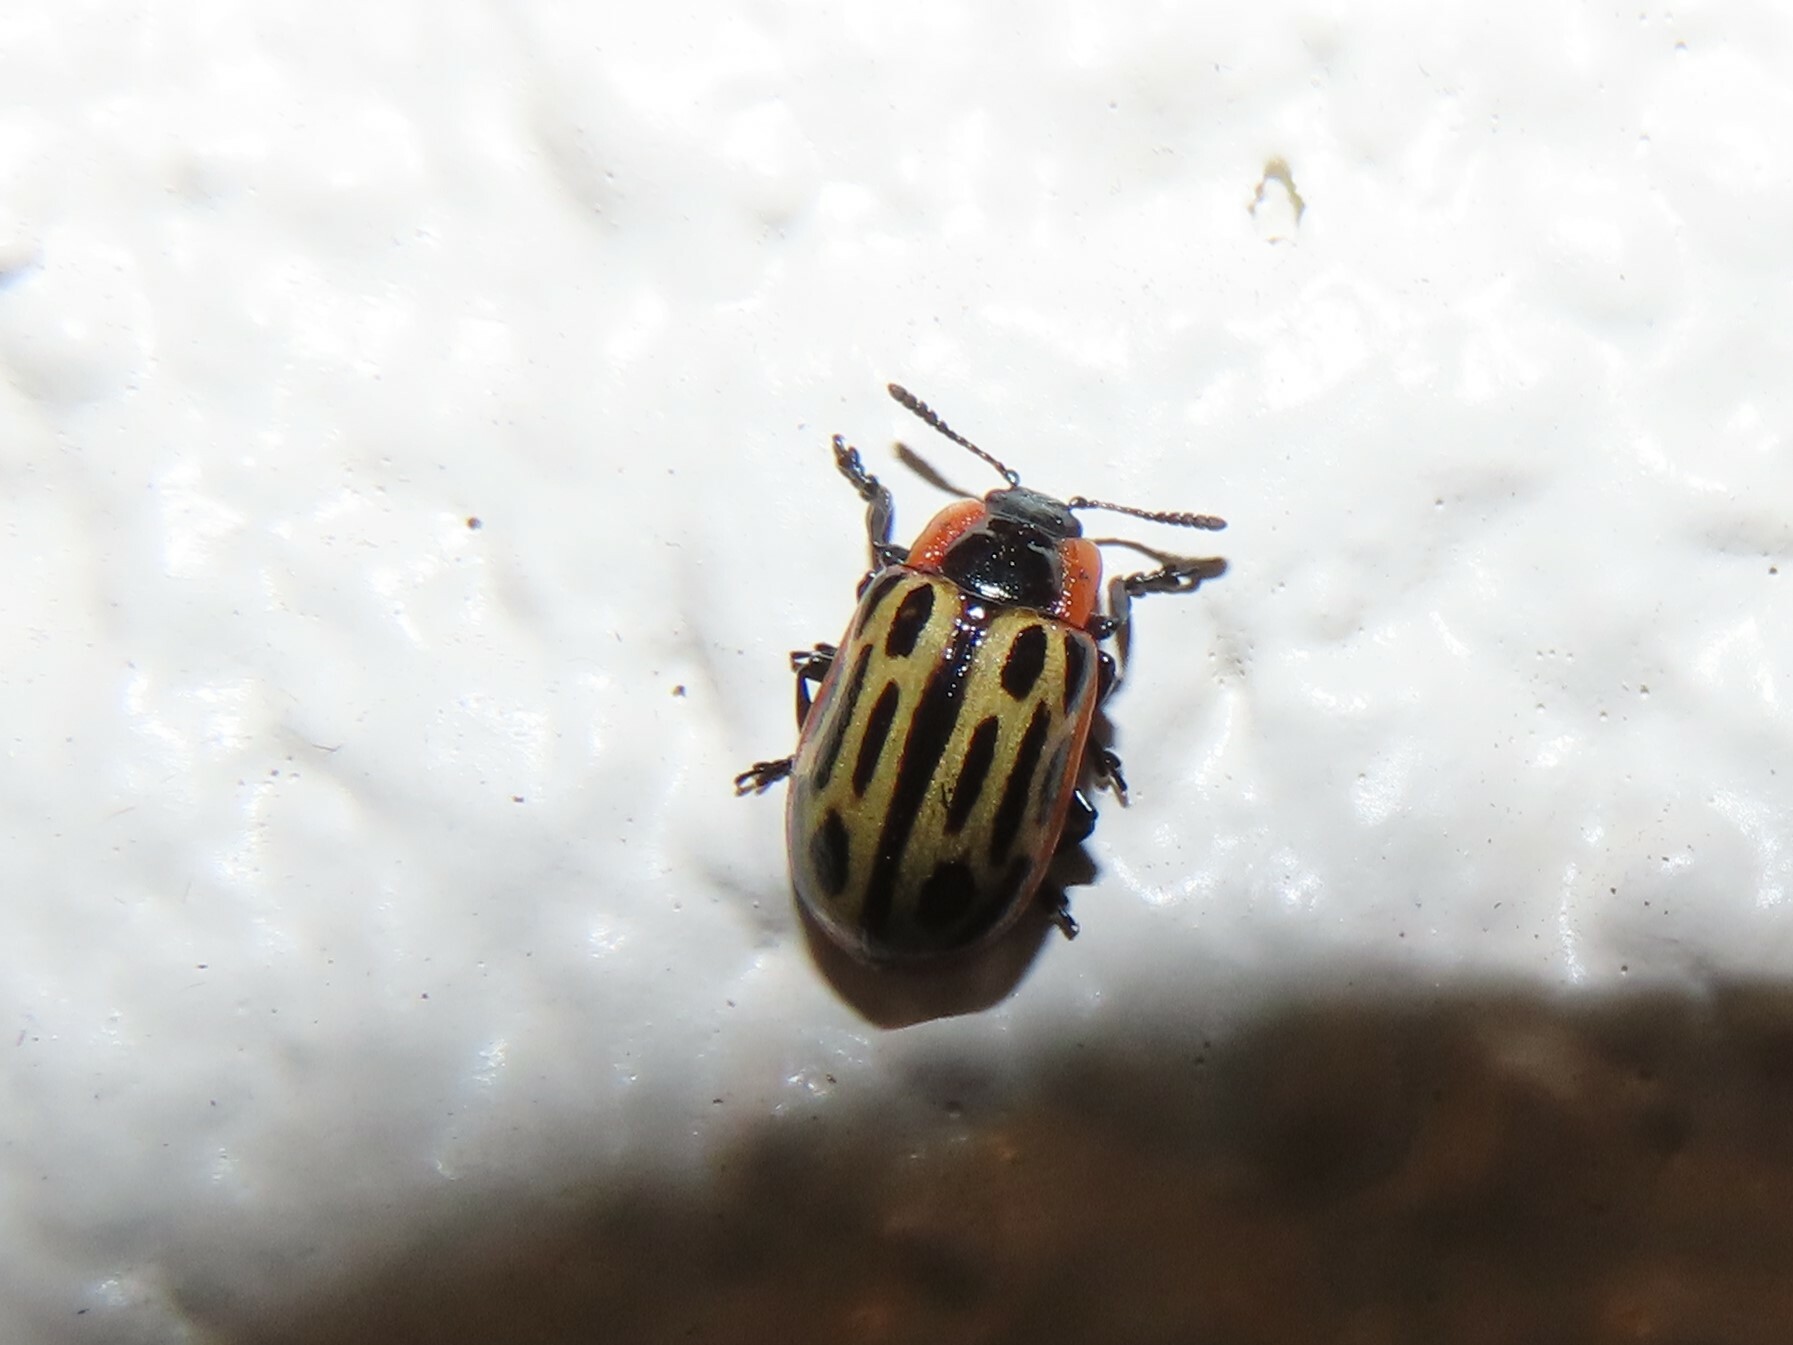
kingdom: Animalia
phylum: Arthropoda
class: Insecta
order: Coleoptera
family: Chrysomelidae
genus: Aethiopocassis
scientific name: Aethiopocassis scripta
